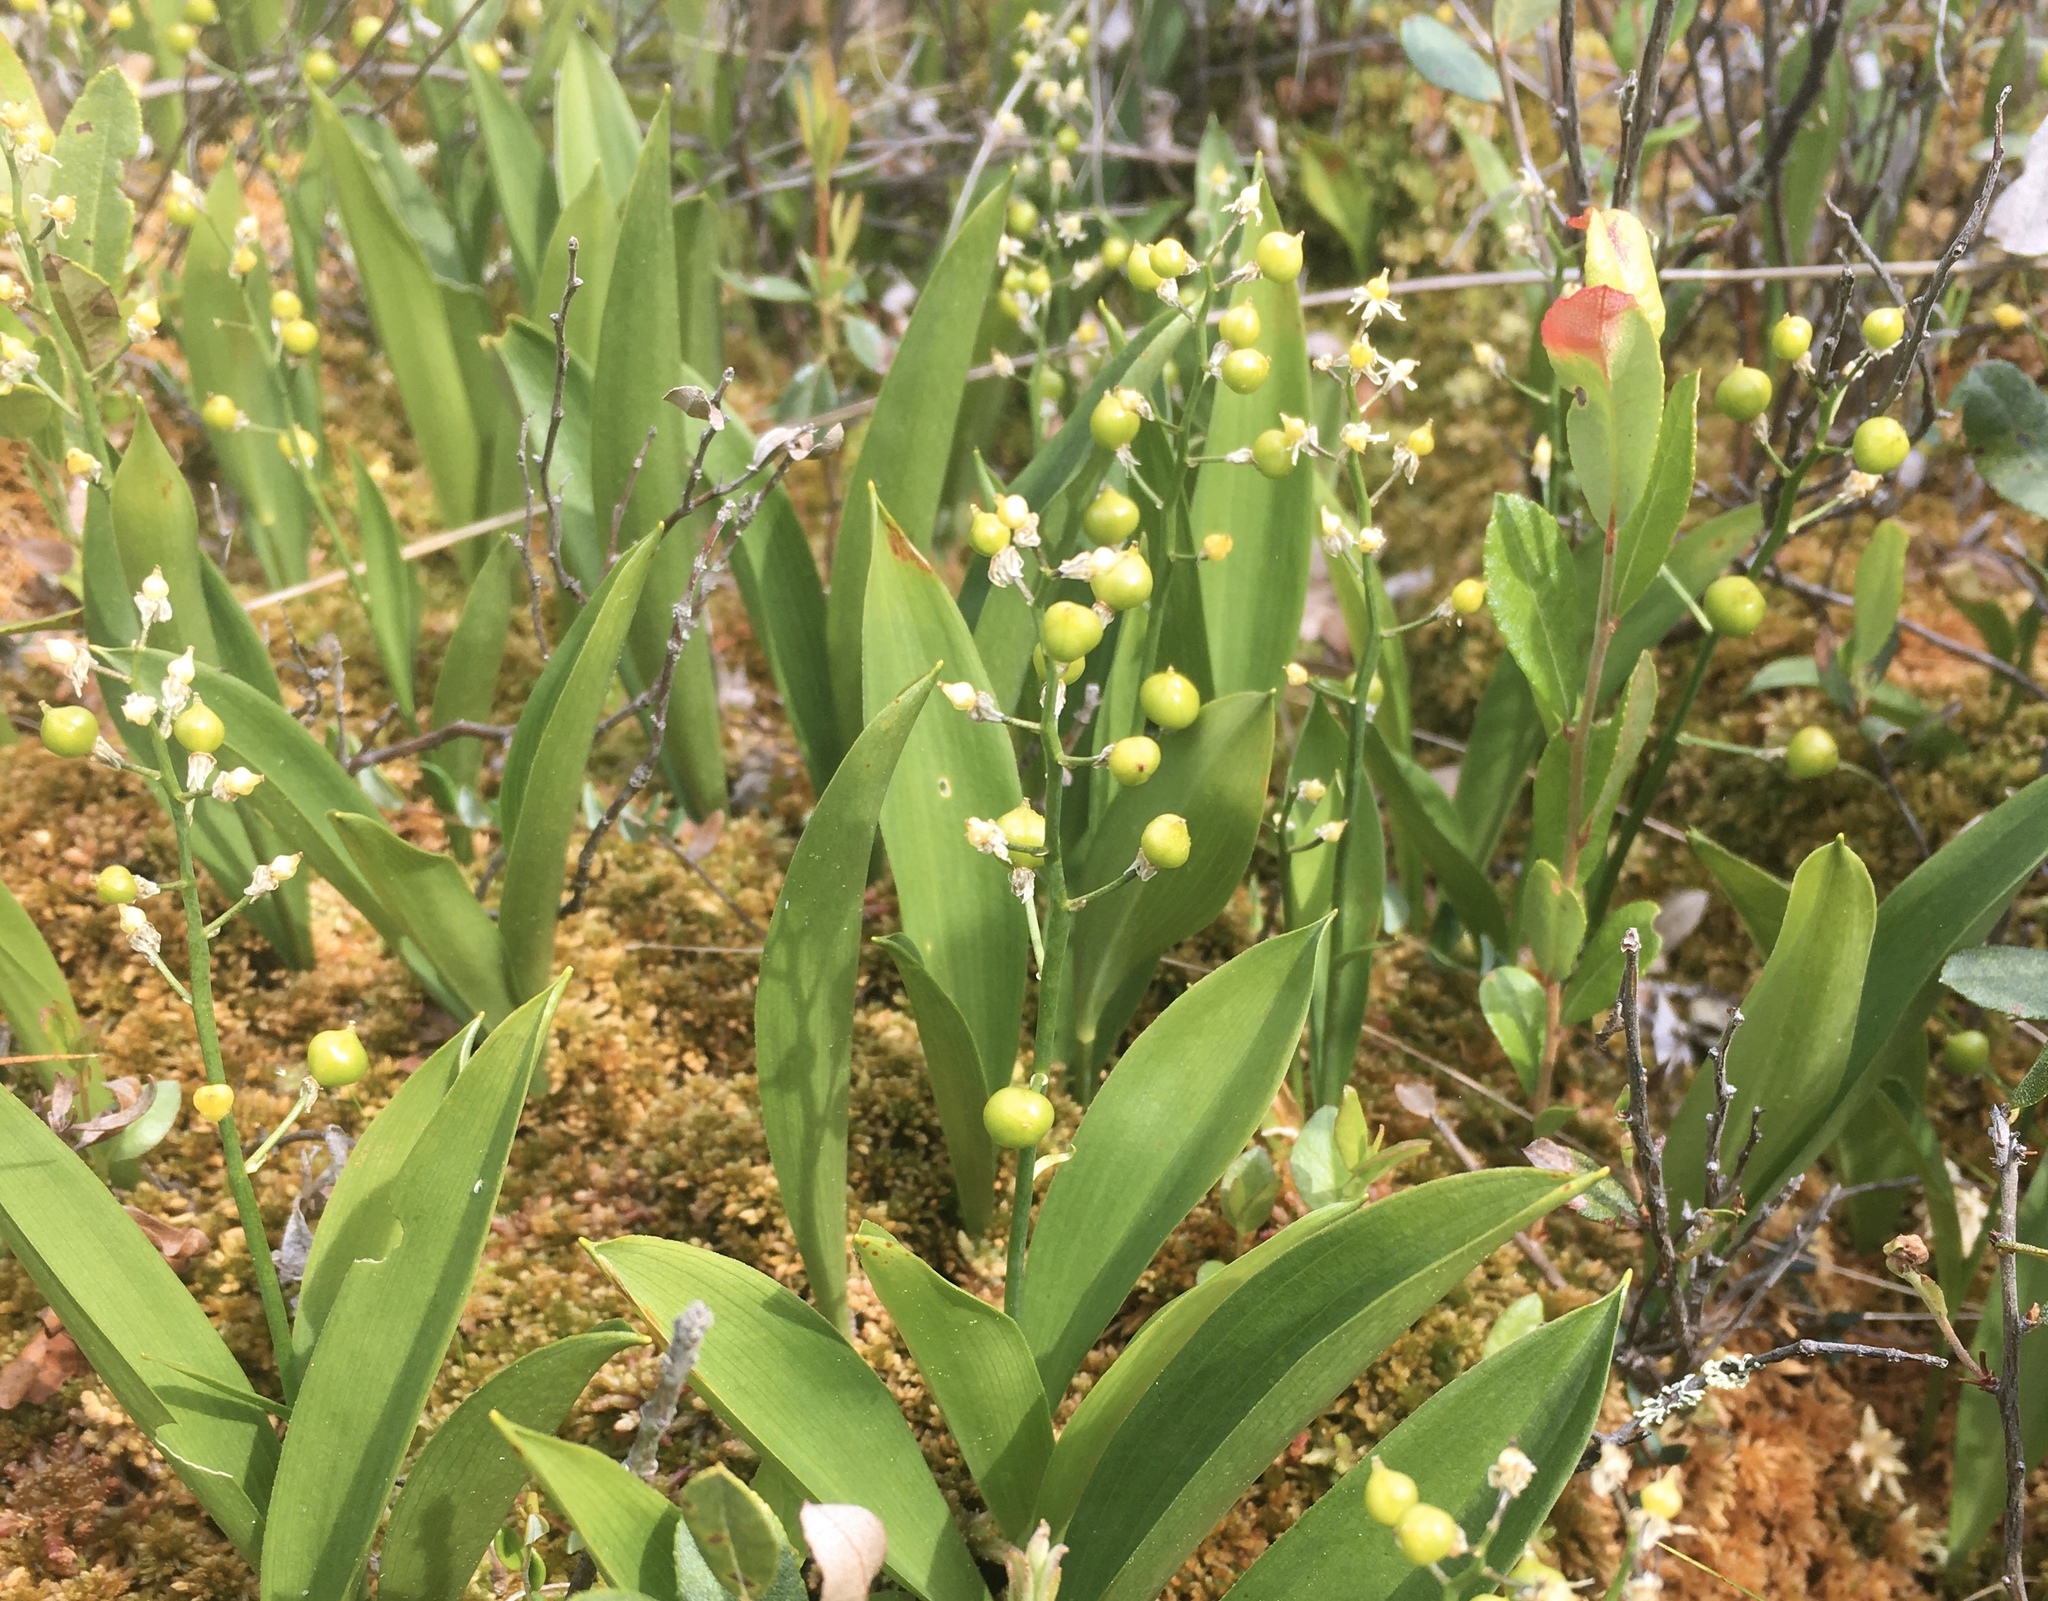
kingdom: Plantae
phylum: Tracheophyta
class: Liliopsida
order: Asparagales
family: Asparagaceae
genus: Maianthemum
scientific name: Maianthemum trifolium
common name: Swamp false solomon's seal
